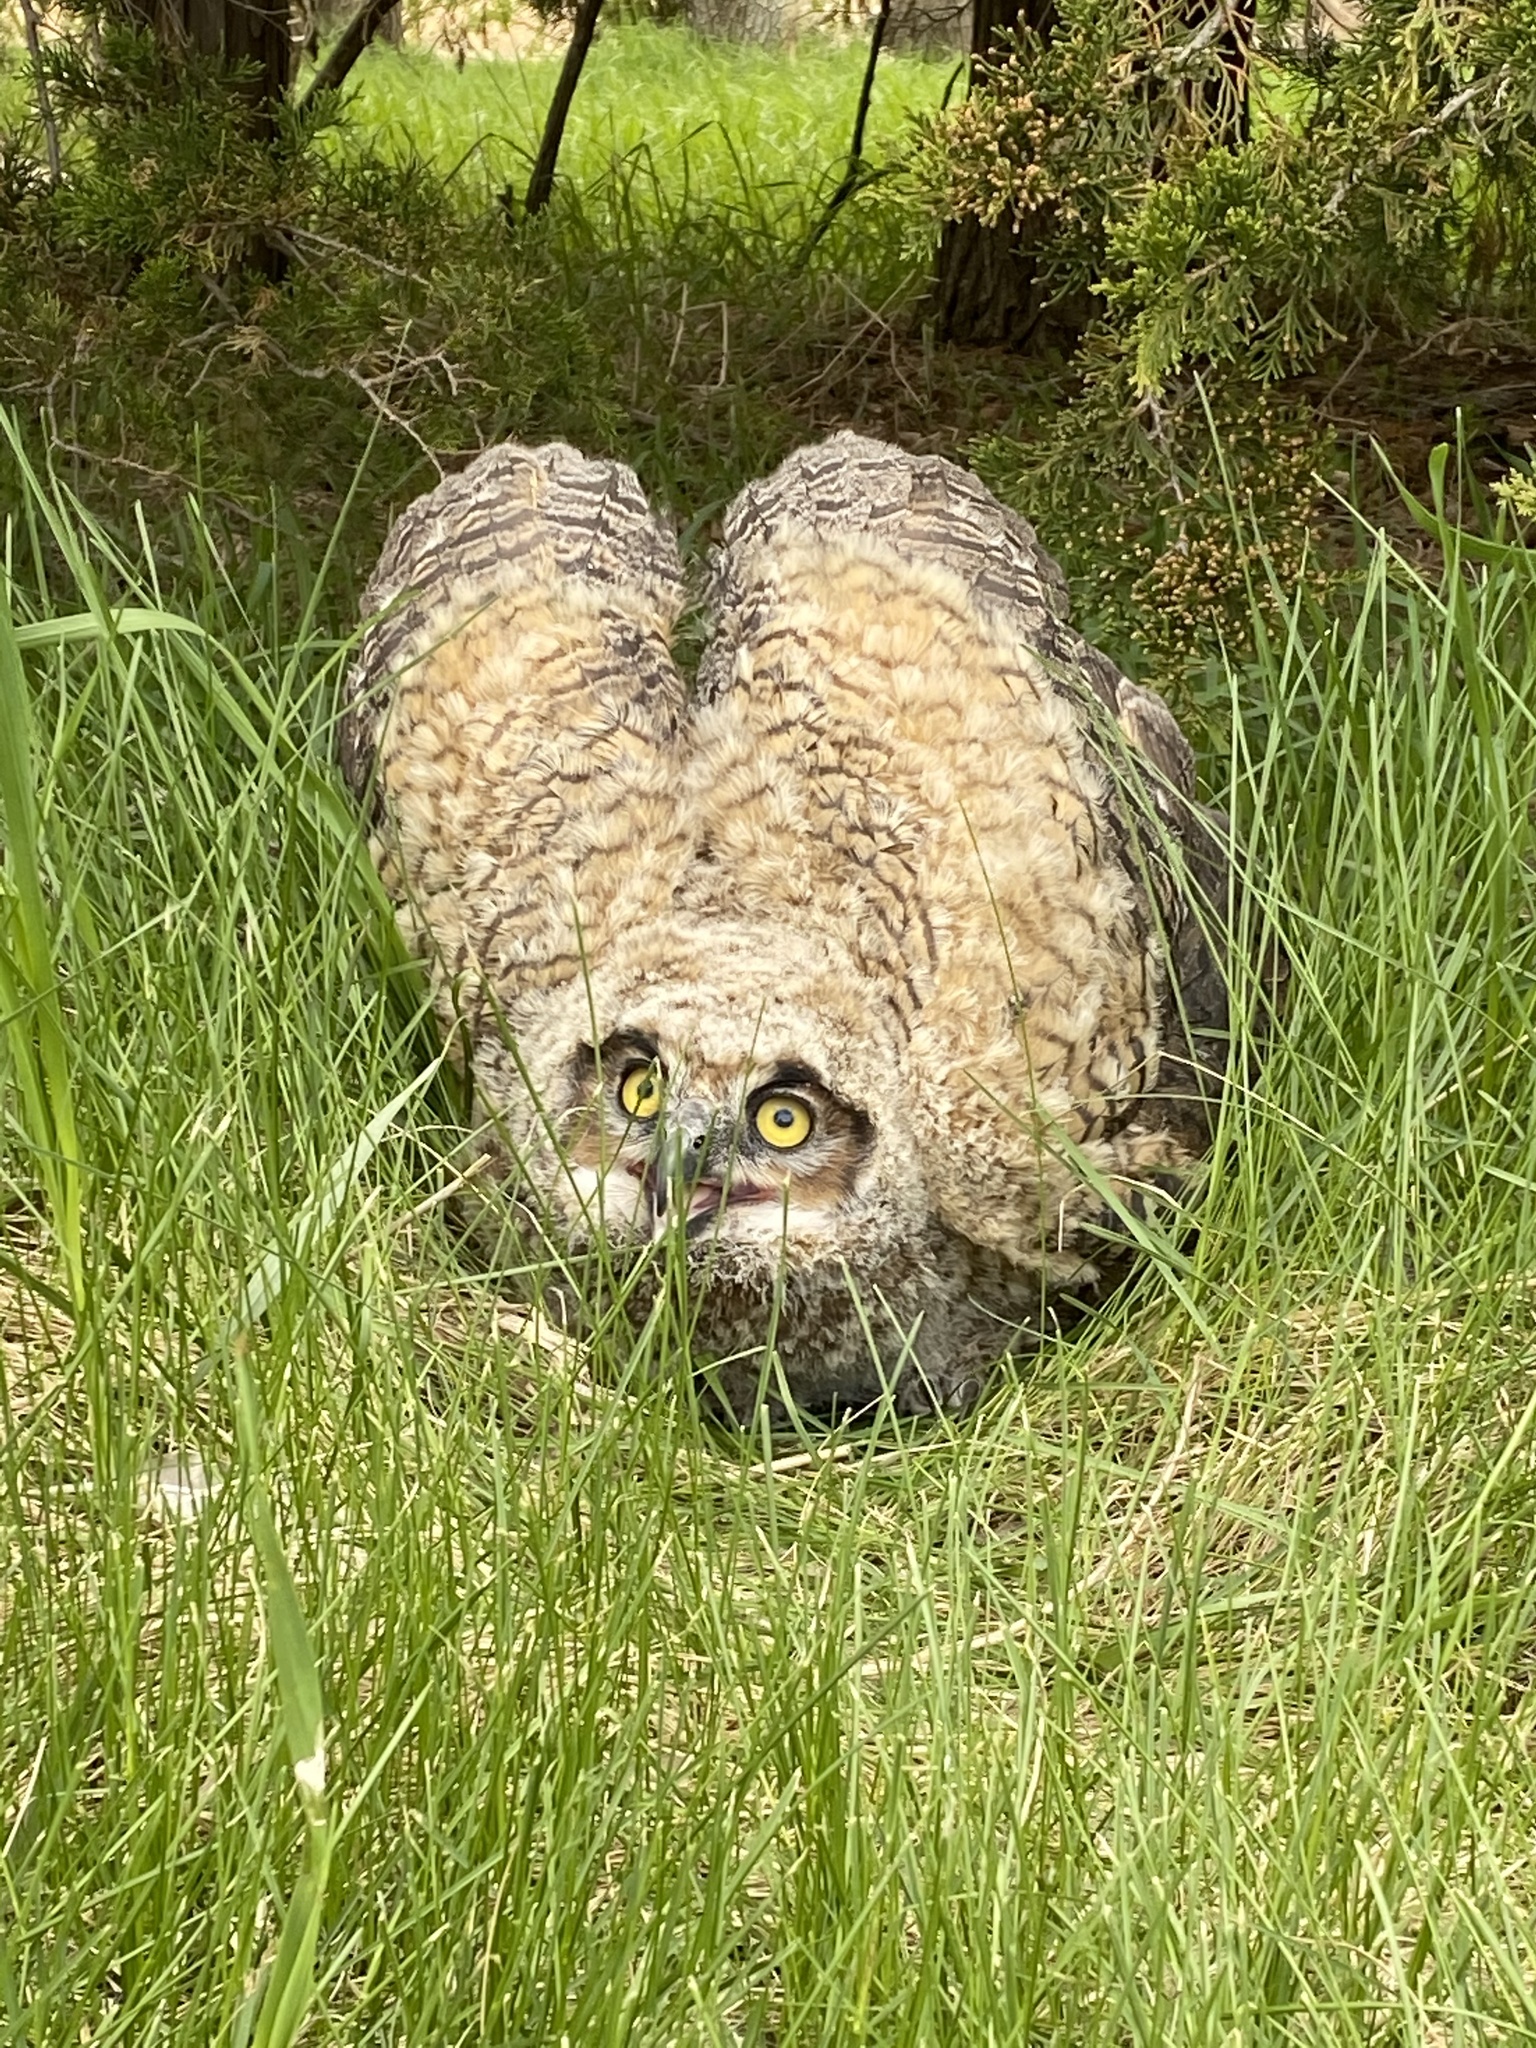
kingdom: Animalia
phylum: Chordata
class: Aves
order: Strigiformes
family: Strigidae
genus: Bubo
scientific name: Bubo virginianus
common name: Great horned owl
